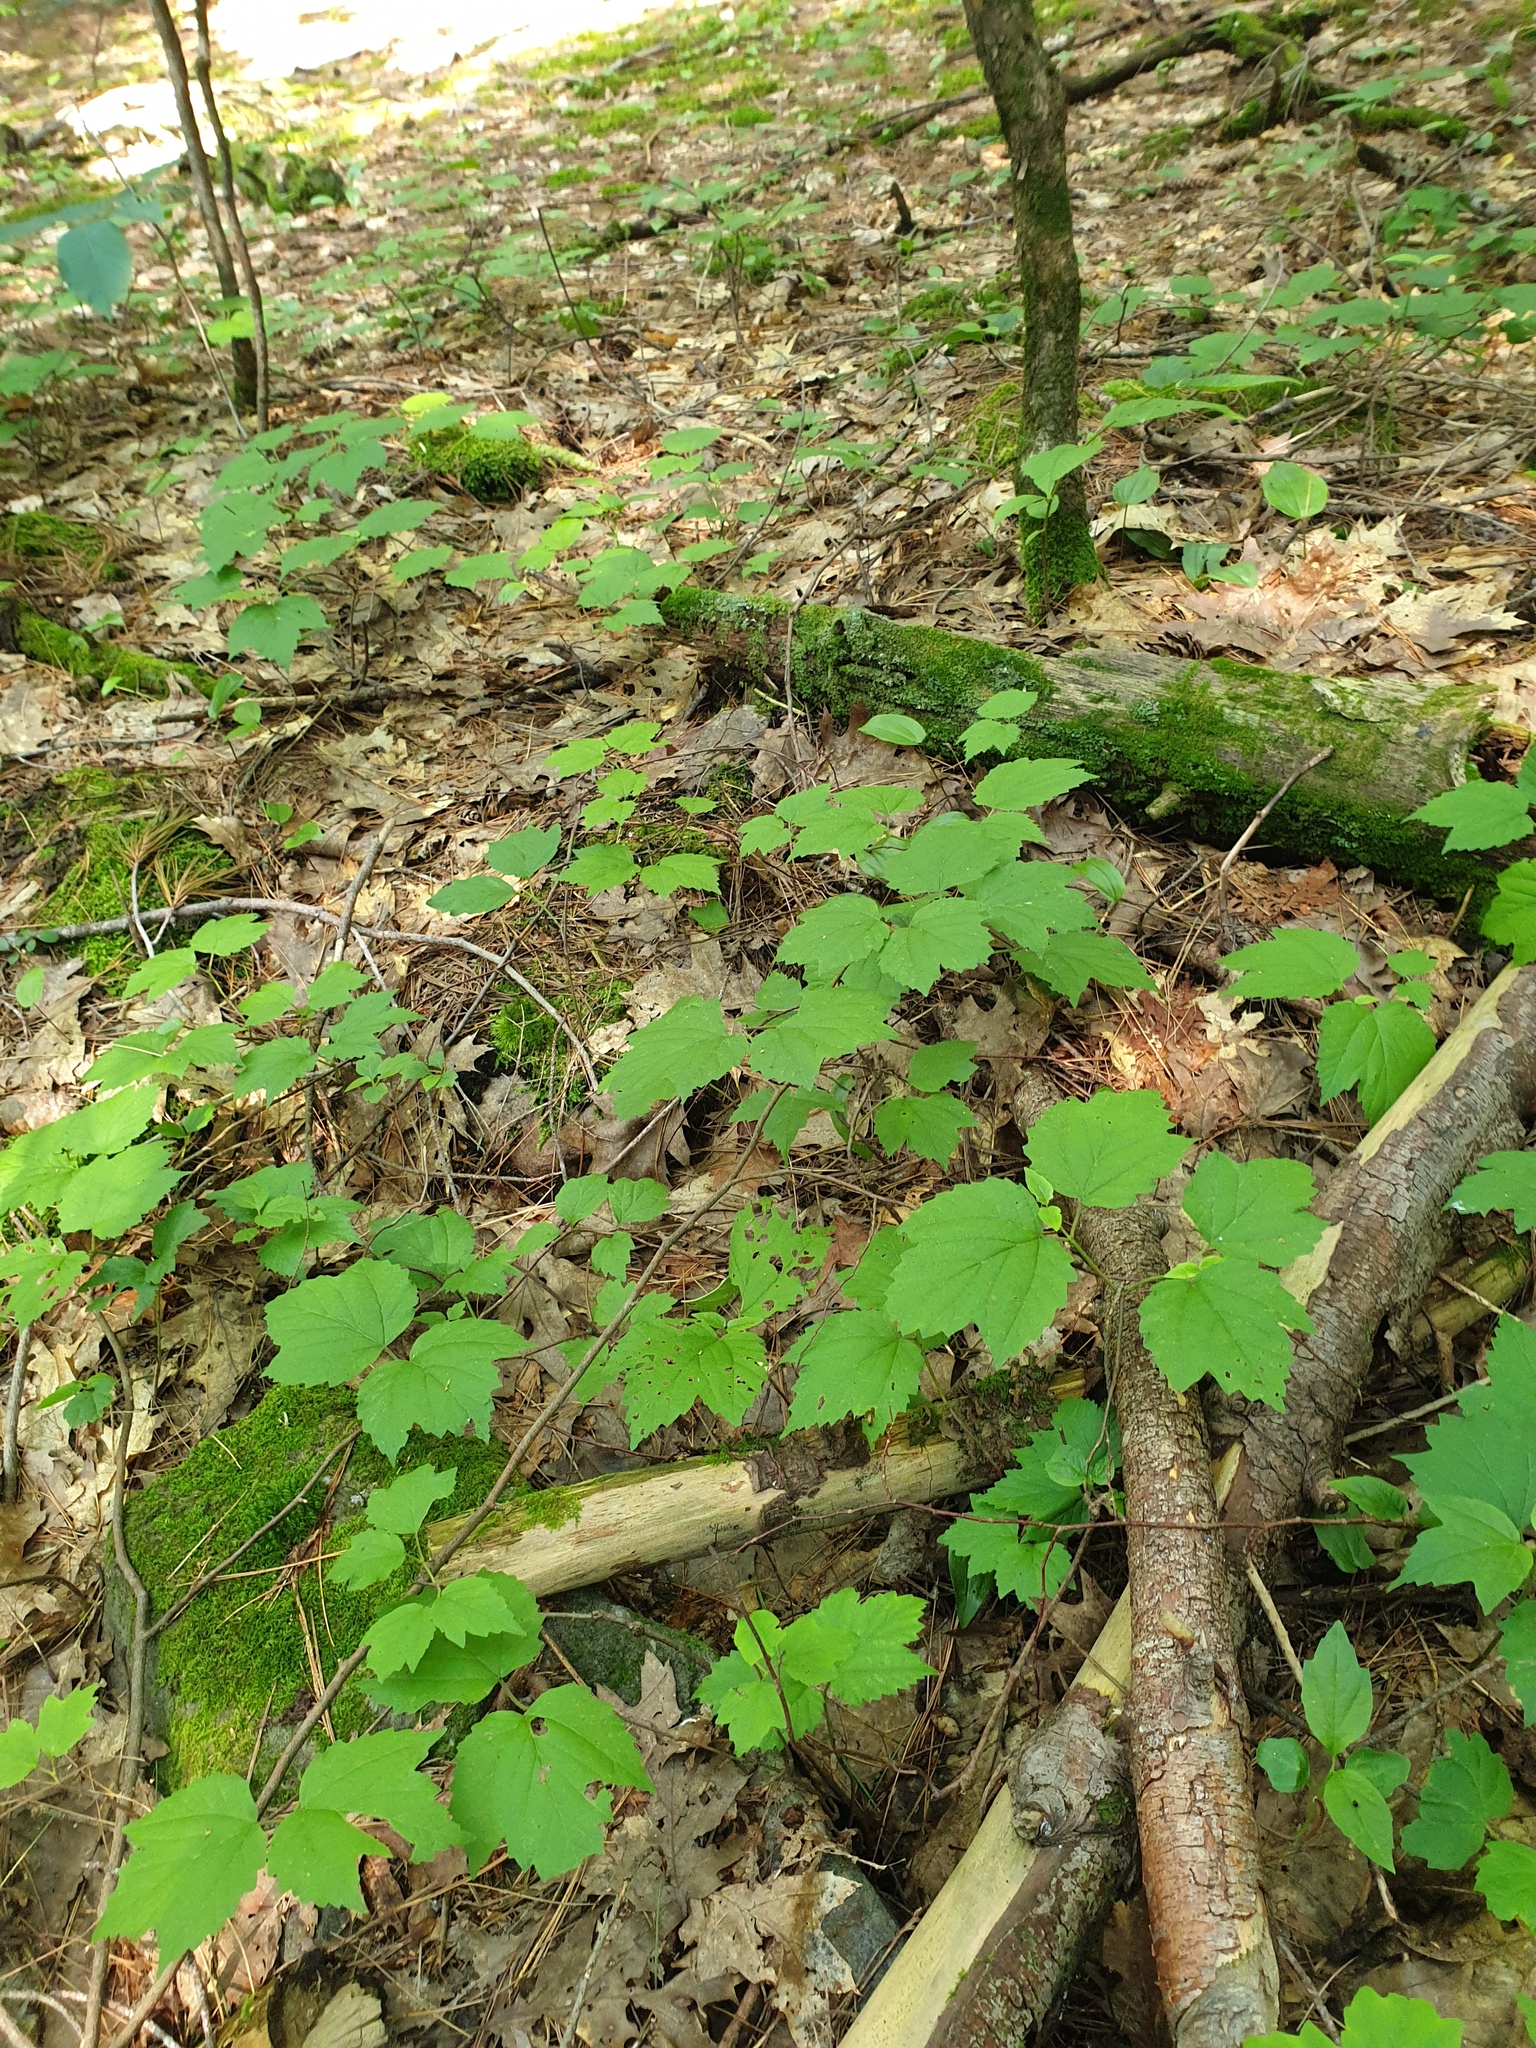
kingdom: Plantae
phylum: Tracheophyta
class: Magnoliopsida
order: Dipsacales
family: Viburnaceae
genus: Viburnum
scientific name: Viburnum acerifolium
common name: Dockmackie
